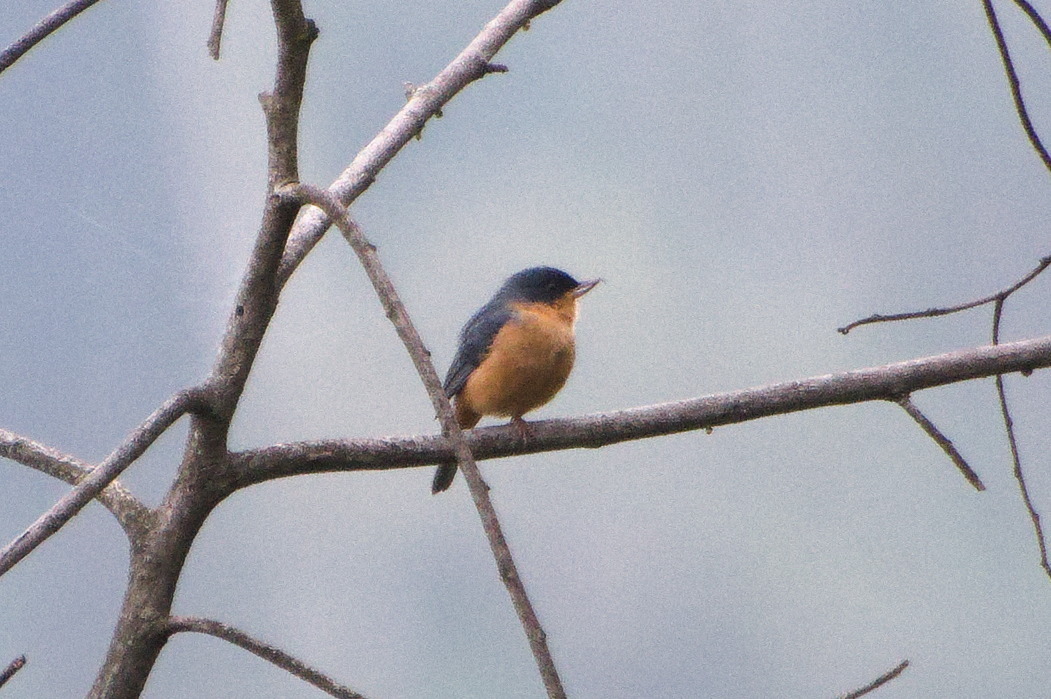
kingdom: Animalia
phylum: Chordata
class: Aves
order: Passeriformes
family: Thraupidae
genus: Diglossa
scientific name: Diglossa sittoides
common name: Rusty flowerpiercer
